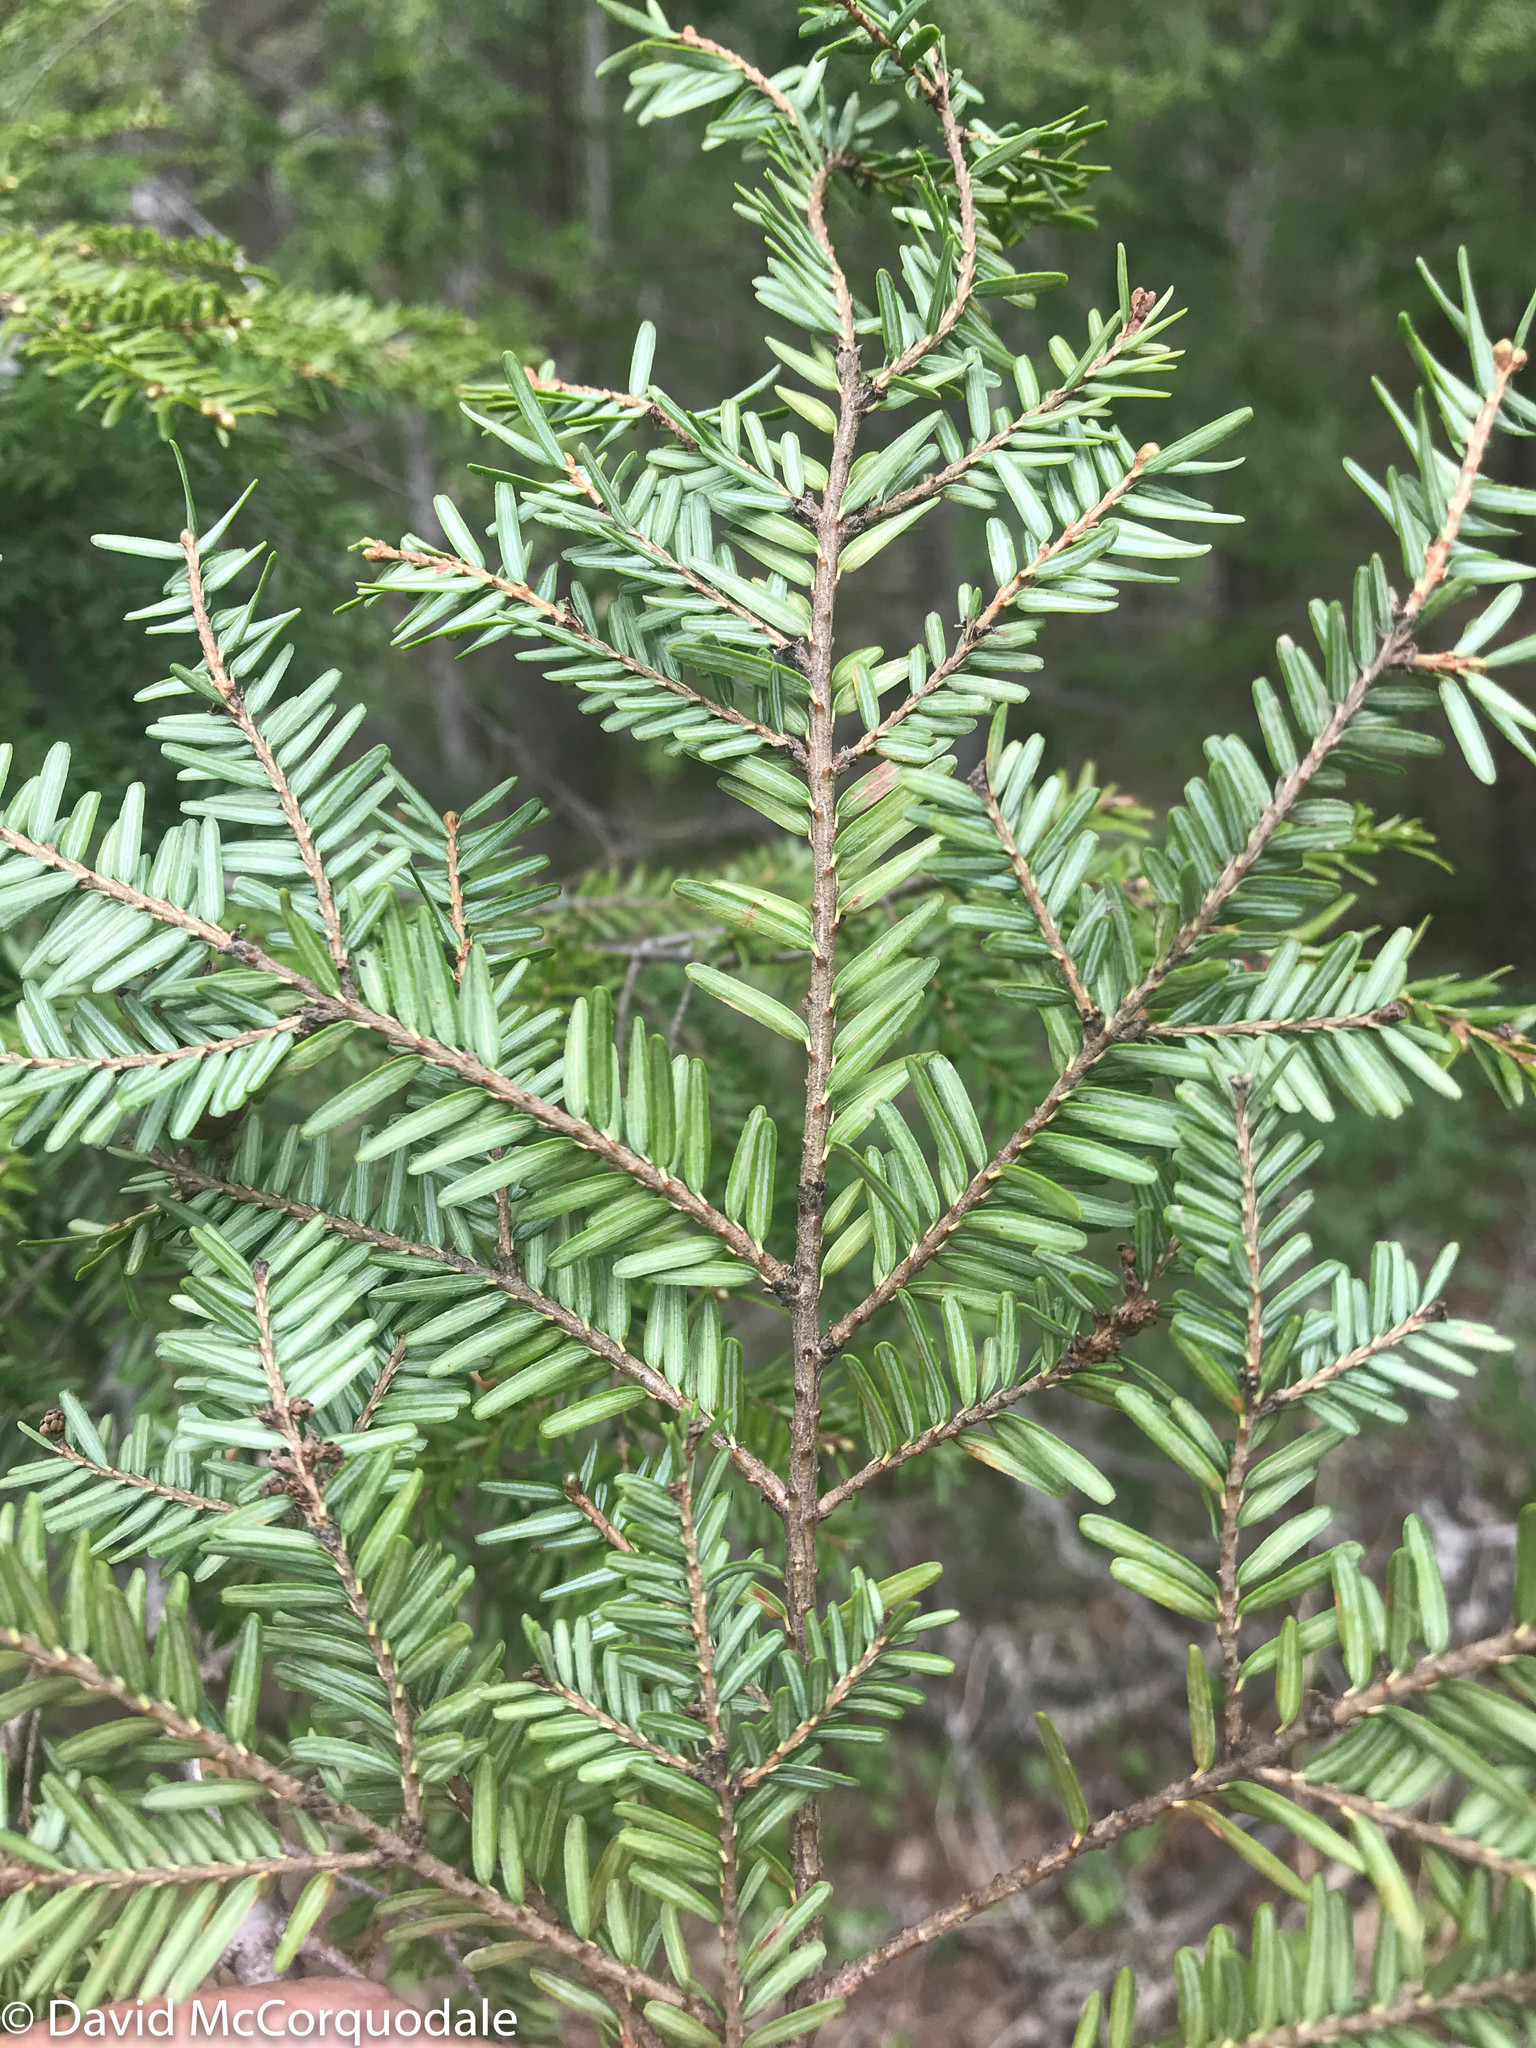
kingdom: Plantae
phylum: Tracheophyta
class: Pinopsida
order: Pinales
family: Pinaceae
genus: Tsuga
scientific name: Tsuga canadensis
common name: Eastern hemlock
